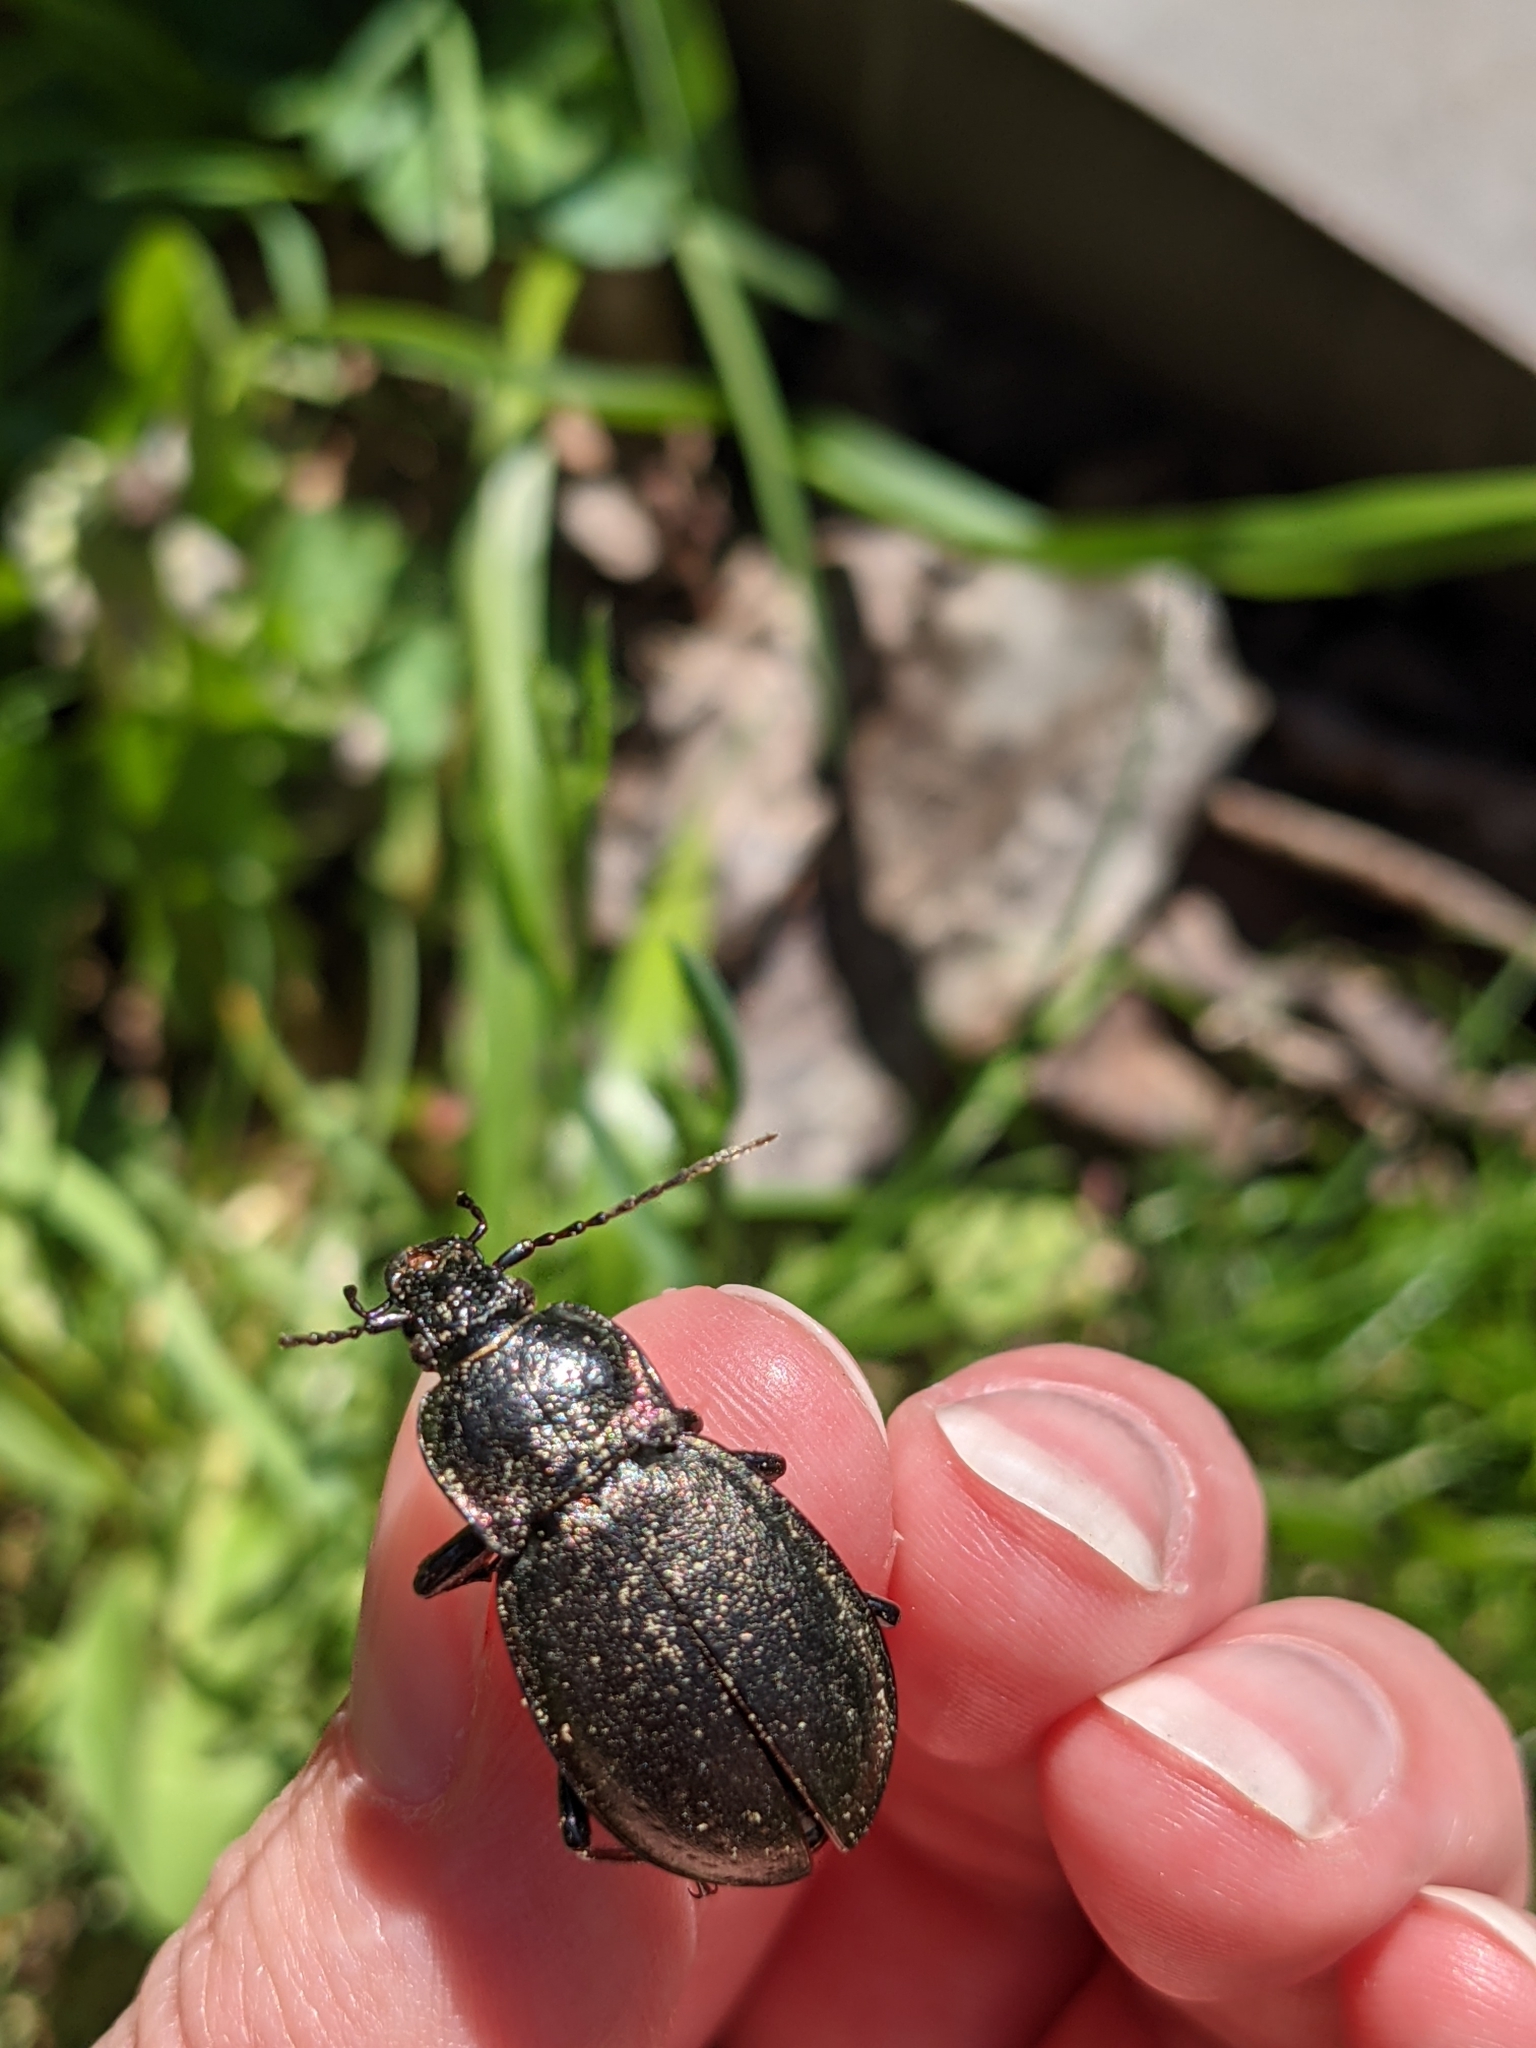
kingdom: Animalia
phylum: Arthropoda
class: Insecta
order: Coleoptera
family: Carabidae
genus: Carabus
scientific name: Carabus nemoralis
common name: European ground beetle
